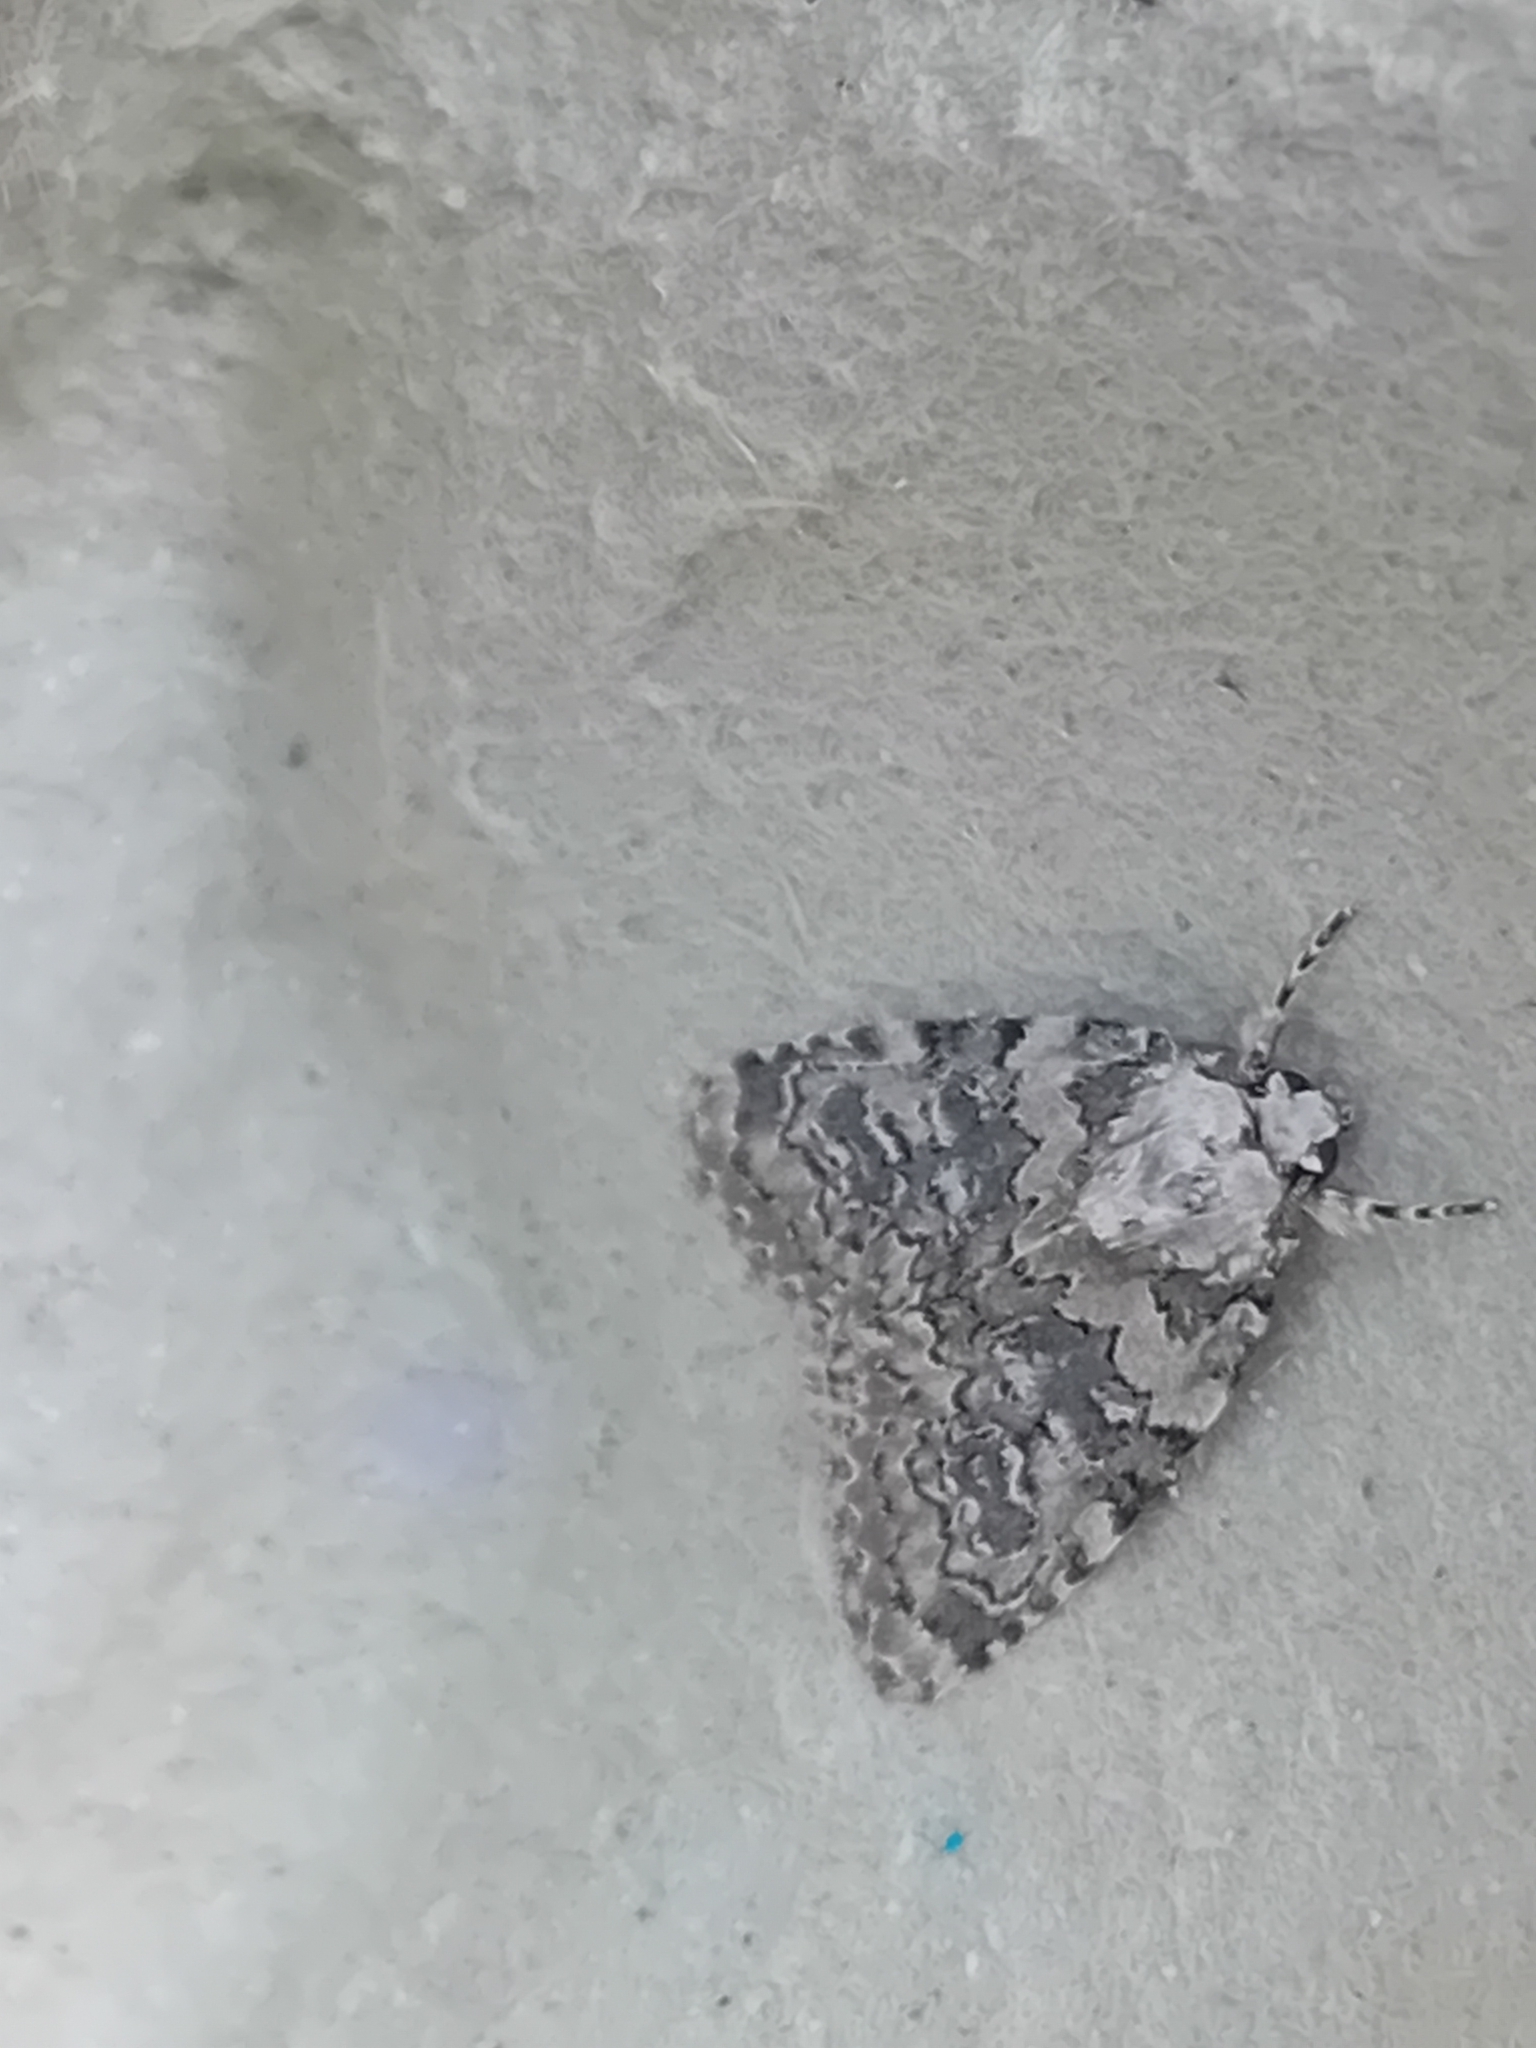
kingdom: Animalia
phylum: Arthropoda
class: Insecta
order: Lepidoptera
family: Noctuidae
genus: Bryophila
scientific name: Bryophila domestica
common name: Marbled beauty
